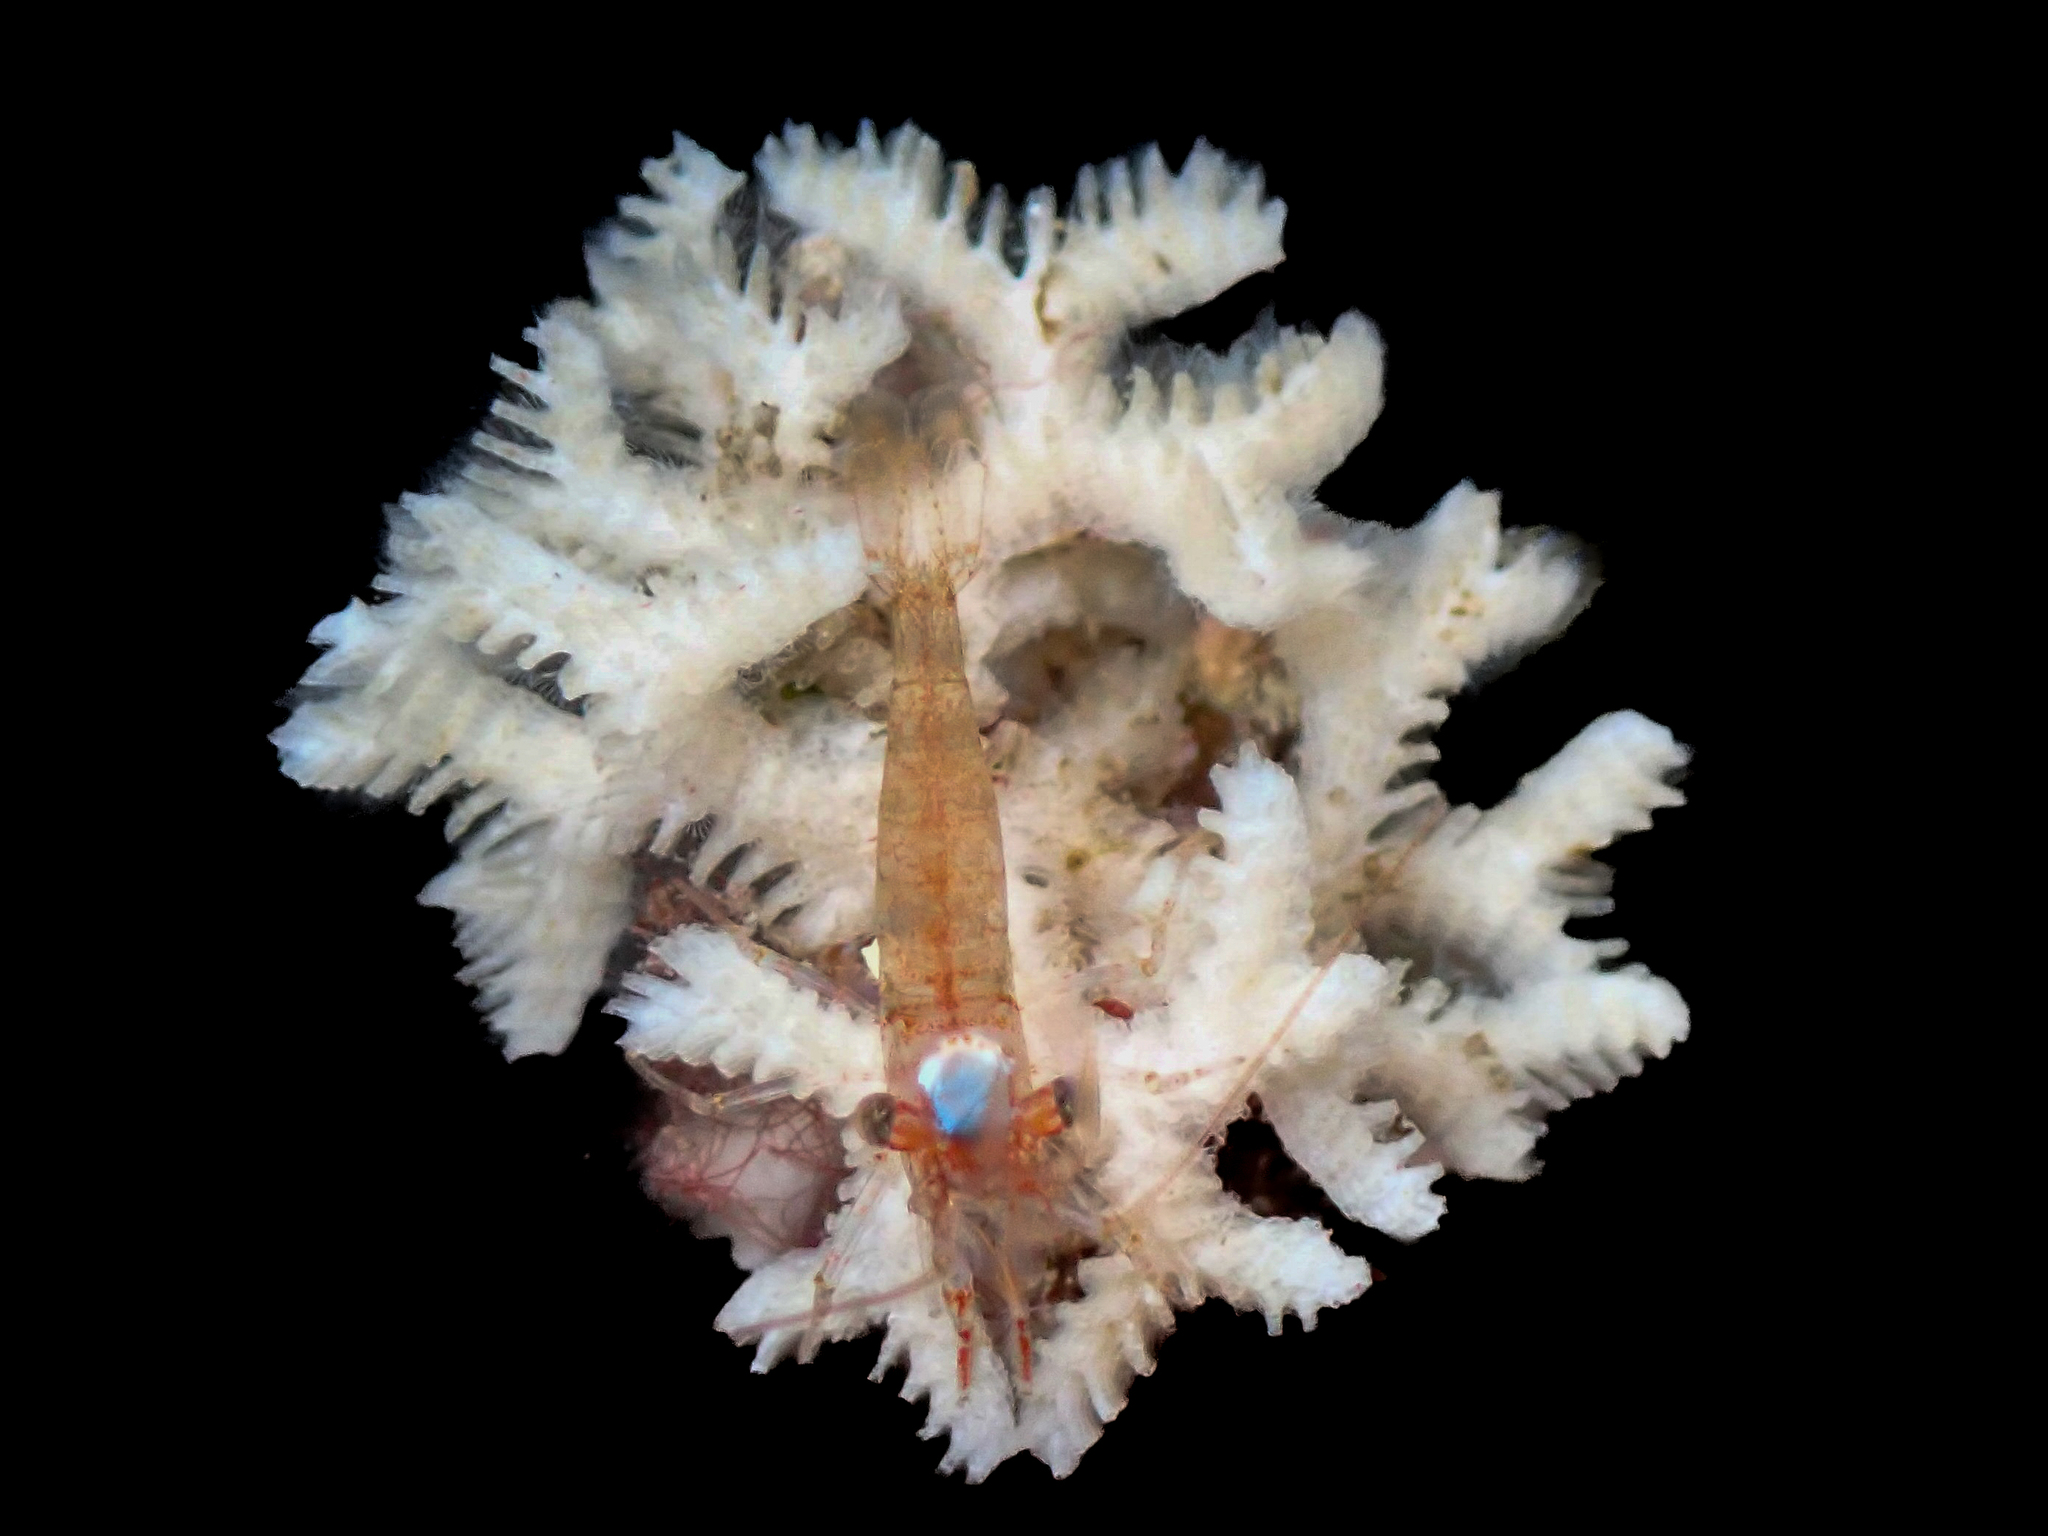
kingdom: Animalia
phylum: Bryozoa
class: Stenolaemata
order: Cyclostomatida
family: Tubuliporidae
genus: Exidmonea
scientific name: Exidmonea atlantica
